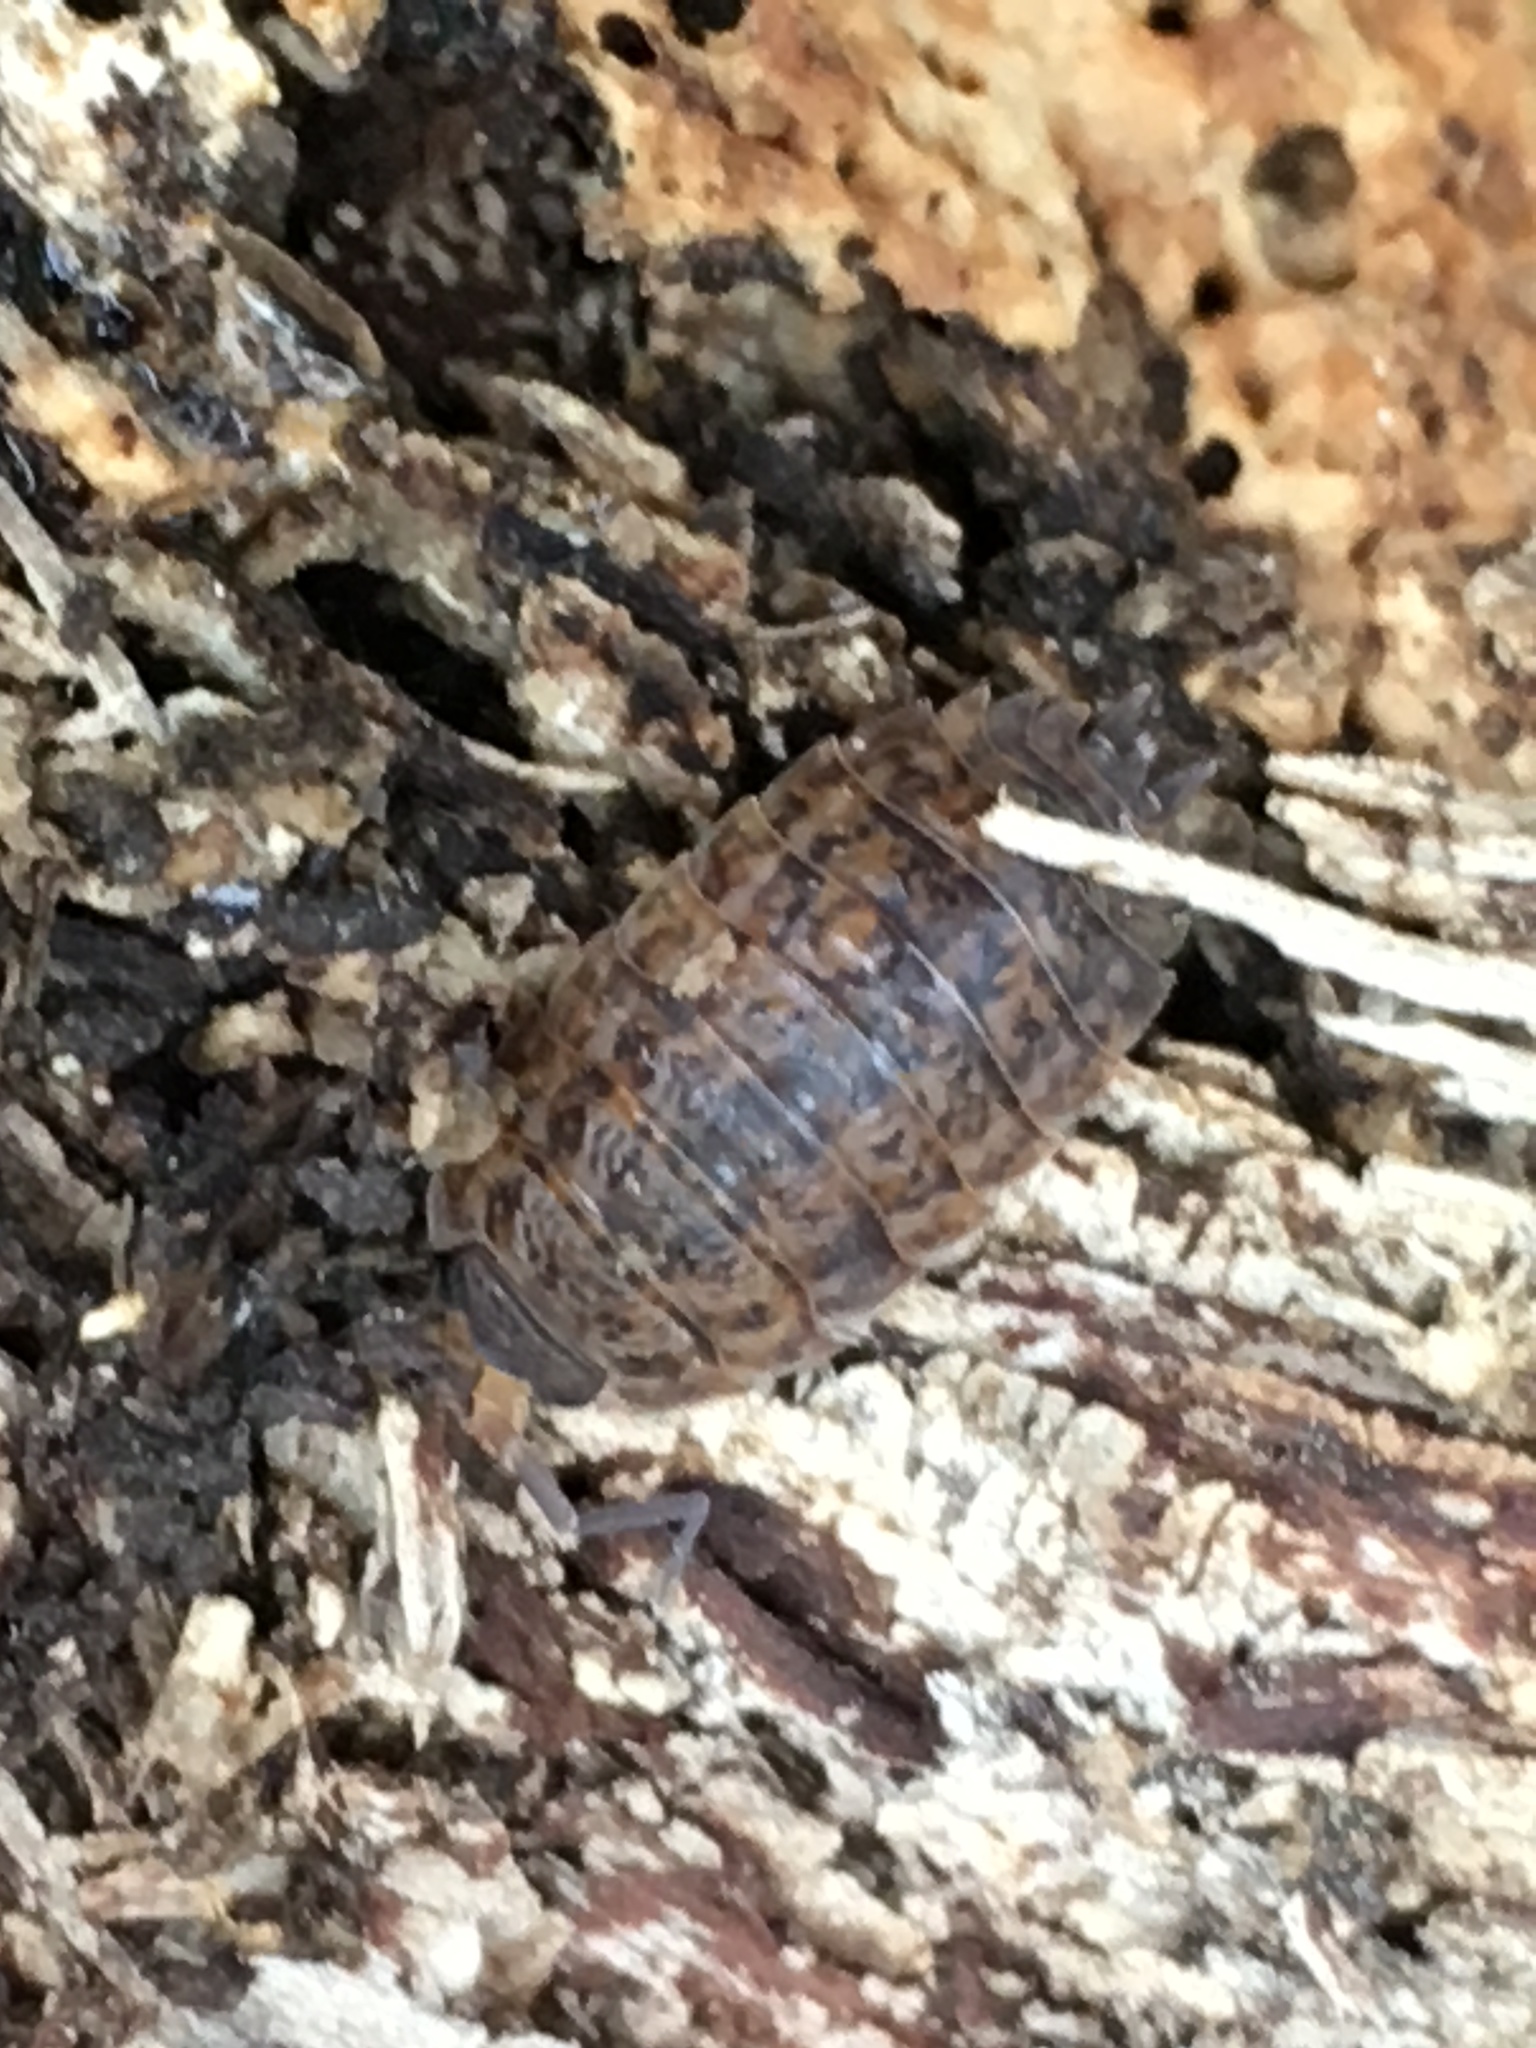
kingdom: Animalia
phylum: Arthropoda
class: Malacostraca
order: Isopoda
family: Trachelipodidae
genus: Trachelipus
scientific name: Trachelipus rathkii
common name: Isopod
